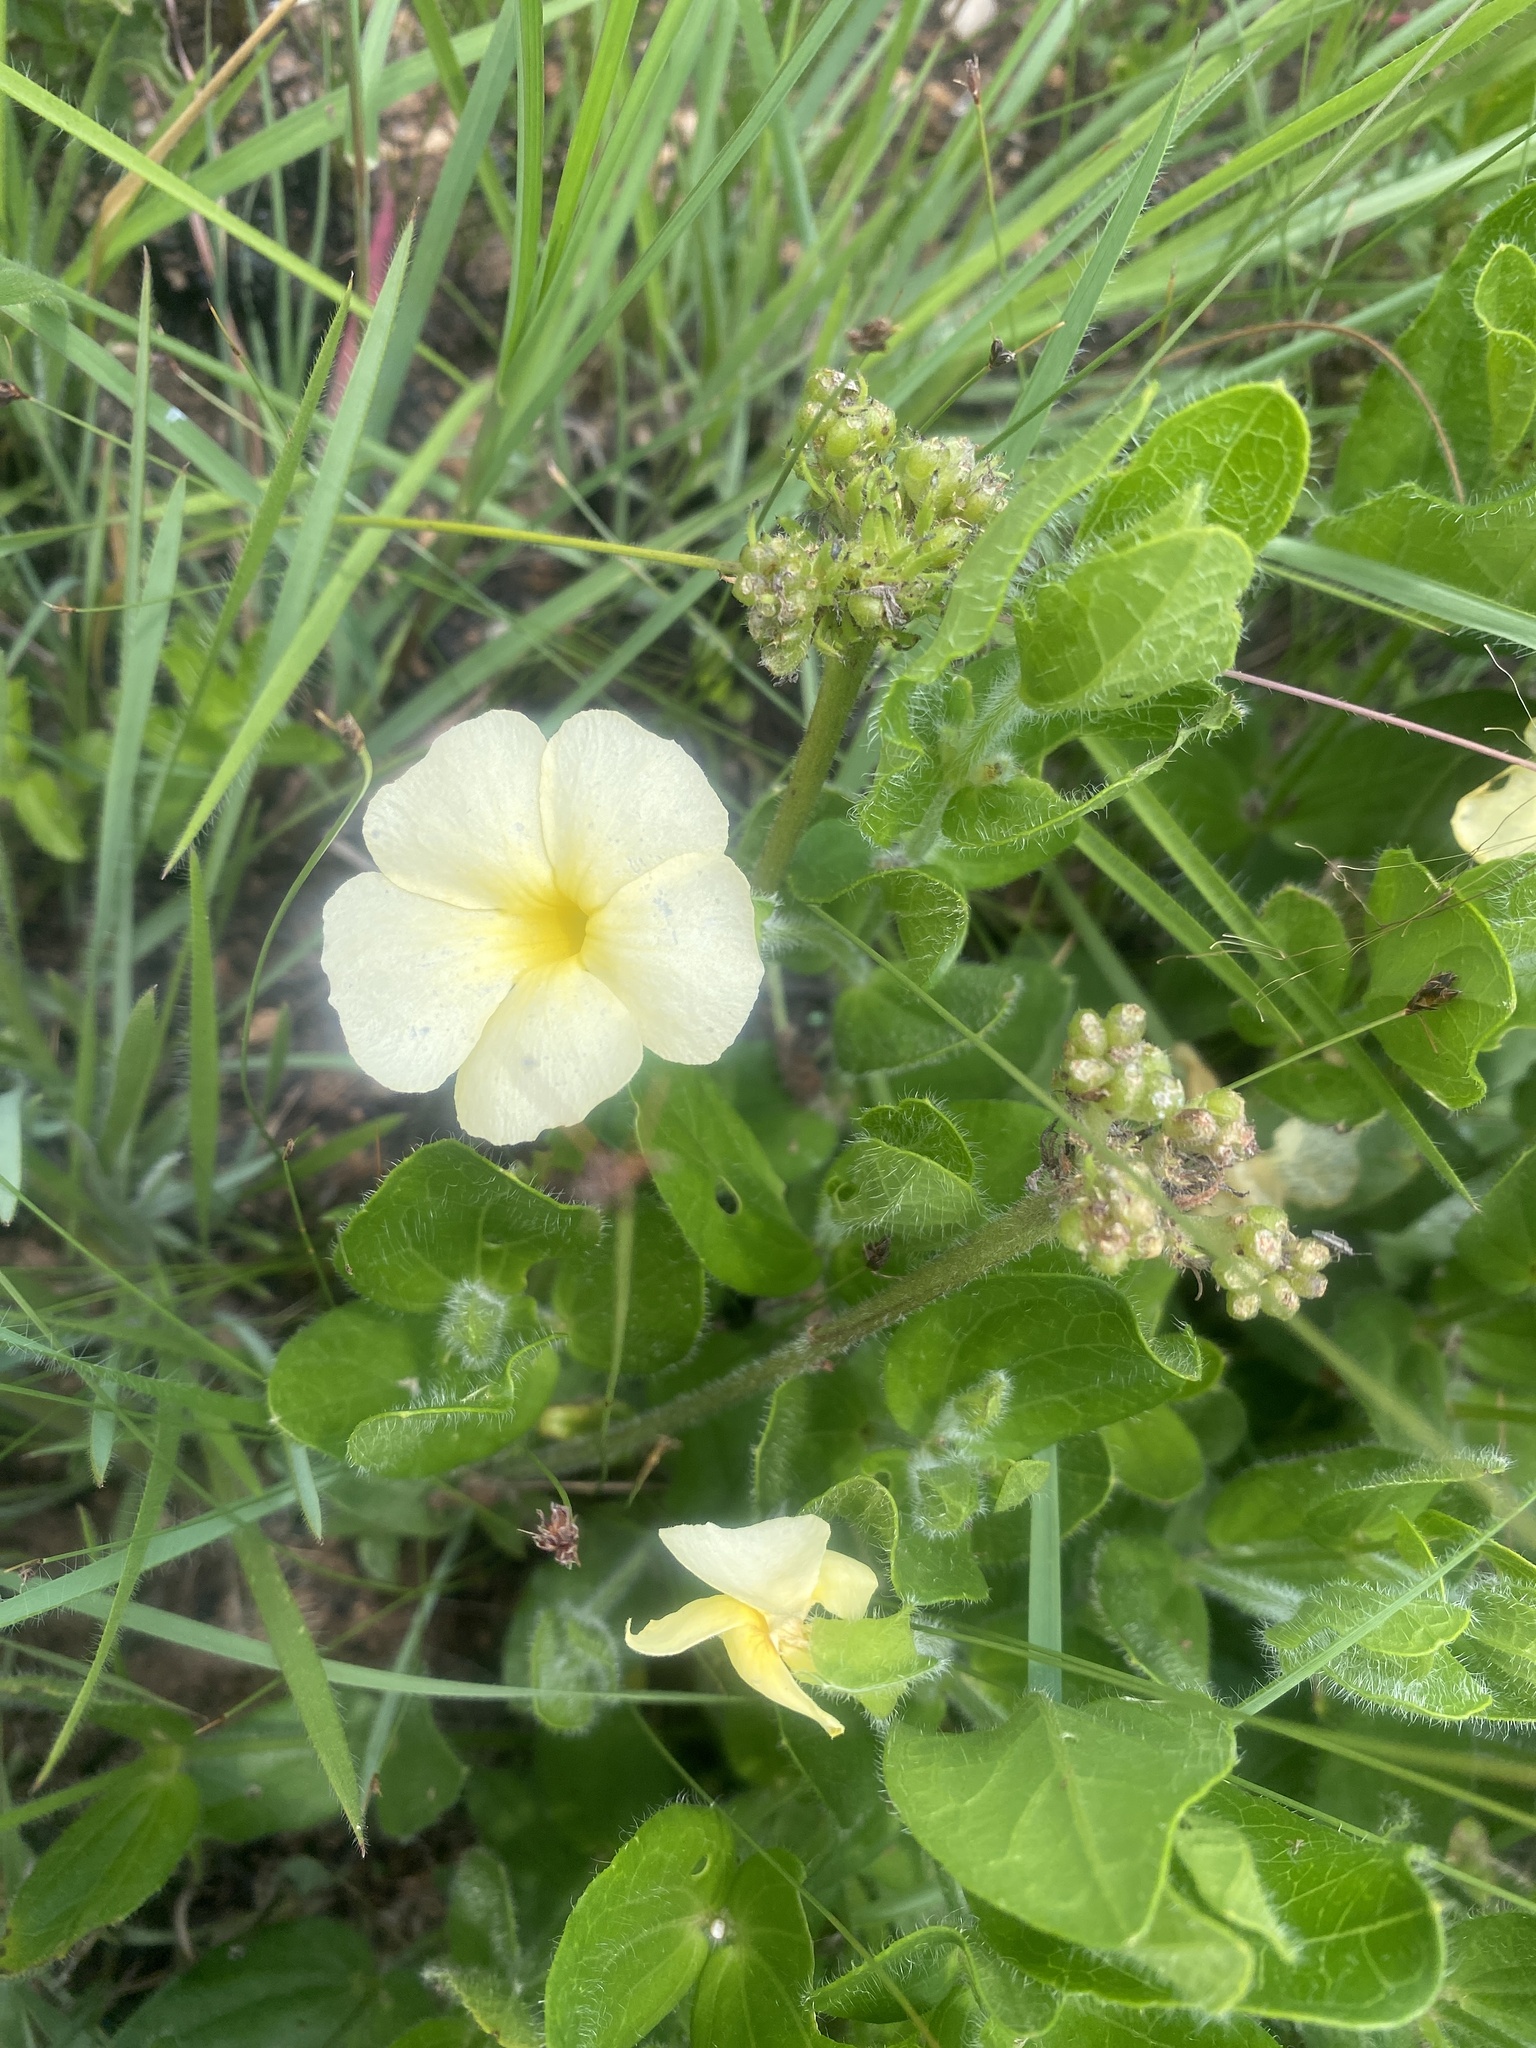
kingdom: Plantae
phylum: Tracheophyta
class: Magnoliopsida
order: Lamiales
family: Acanthaceae
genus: Thunbergia
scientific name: Thunbergia atriplicifolia
